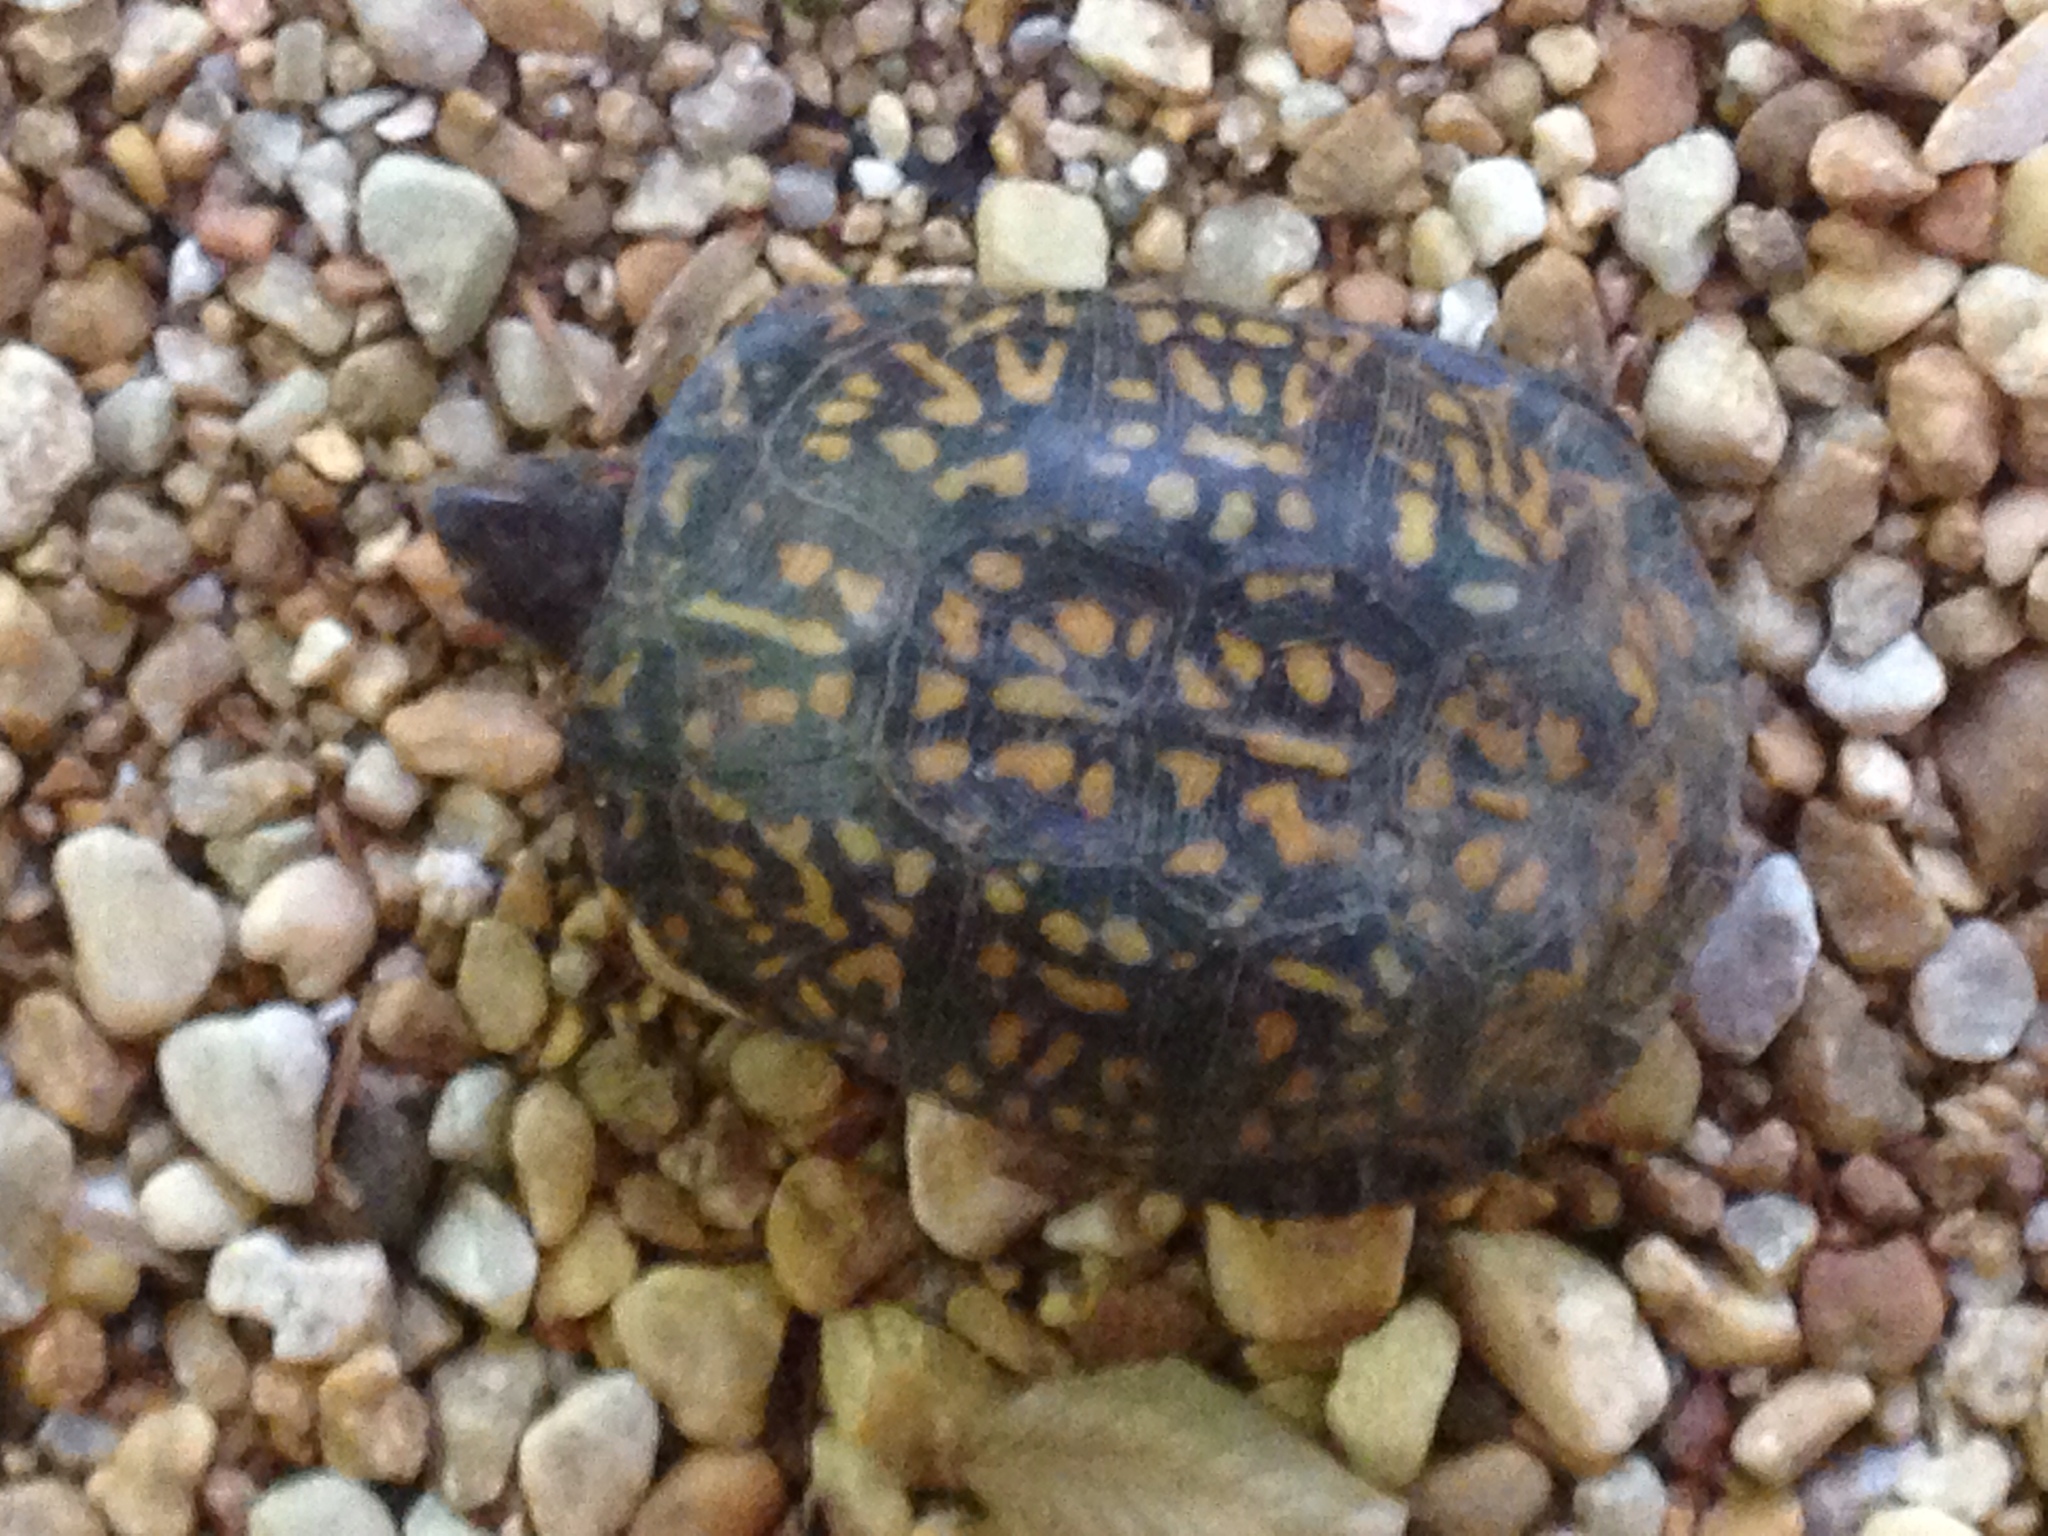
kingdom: Animalia
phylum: Chordata
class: Testudines
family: Emydidae
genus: Terrapene
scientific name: Terrapene carolina
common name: Common box turtle
